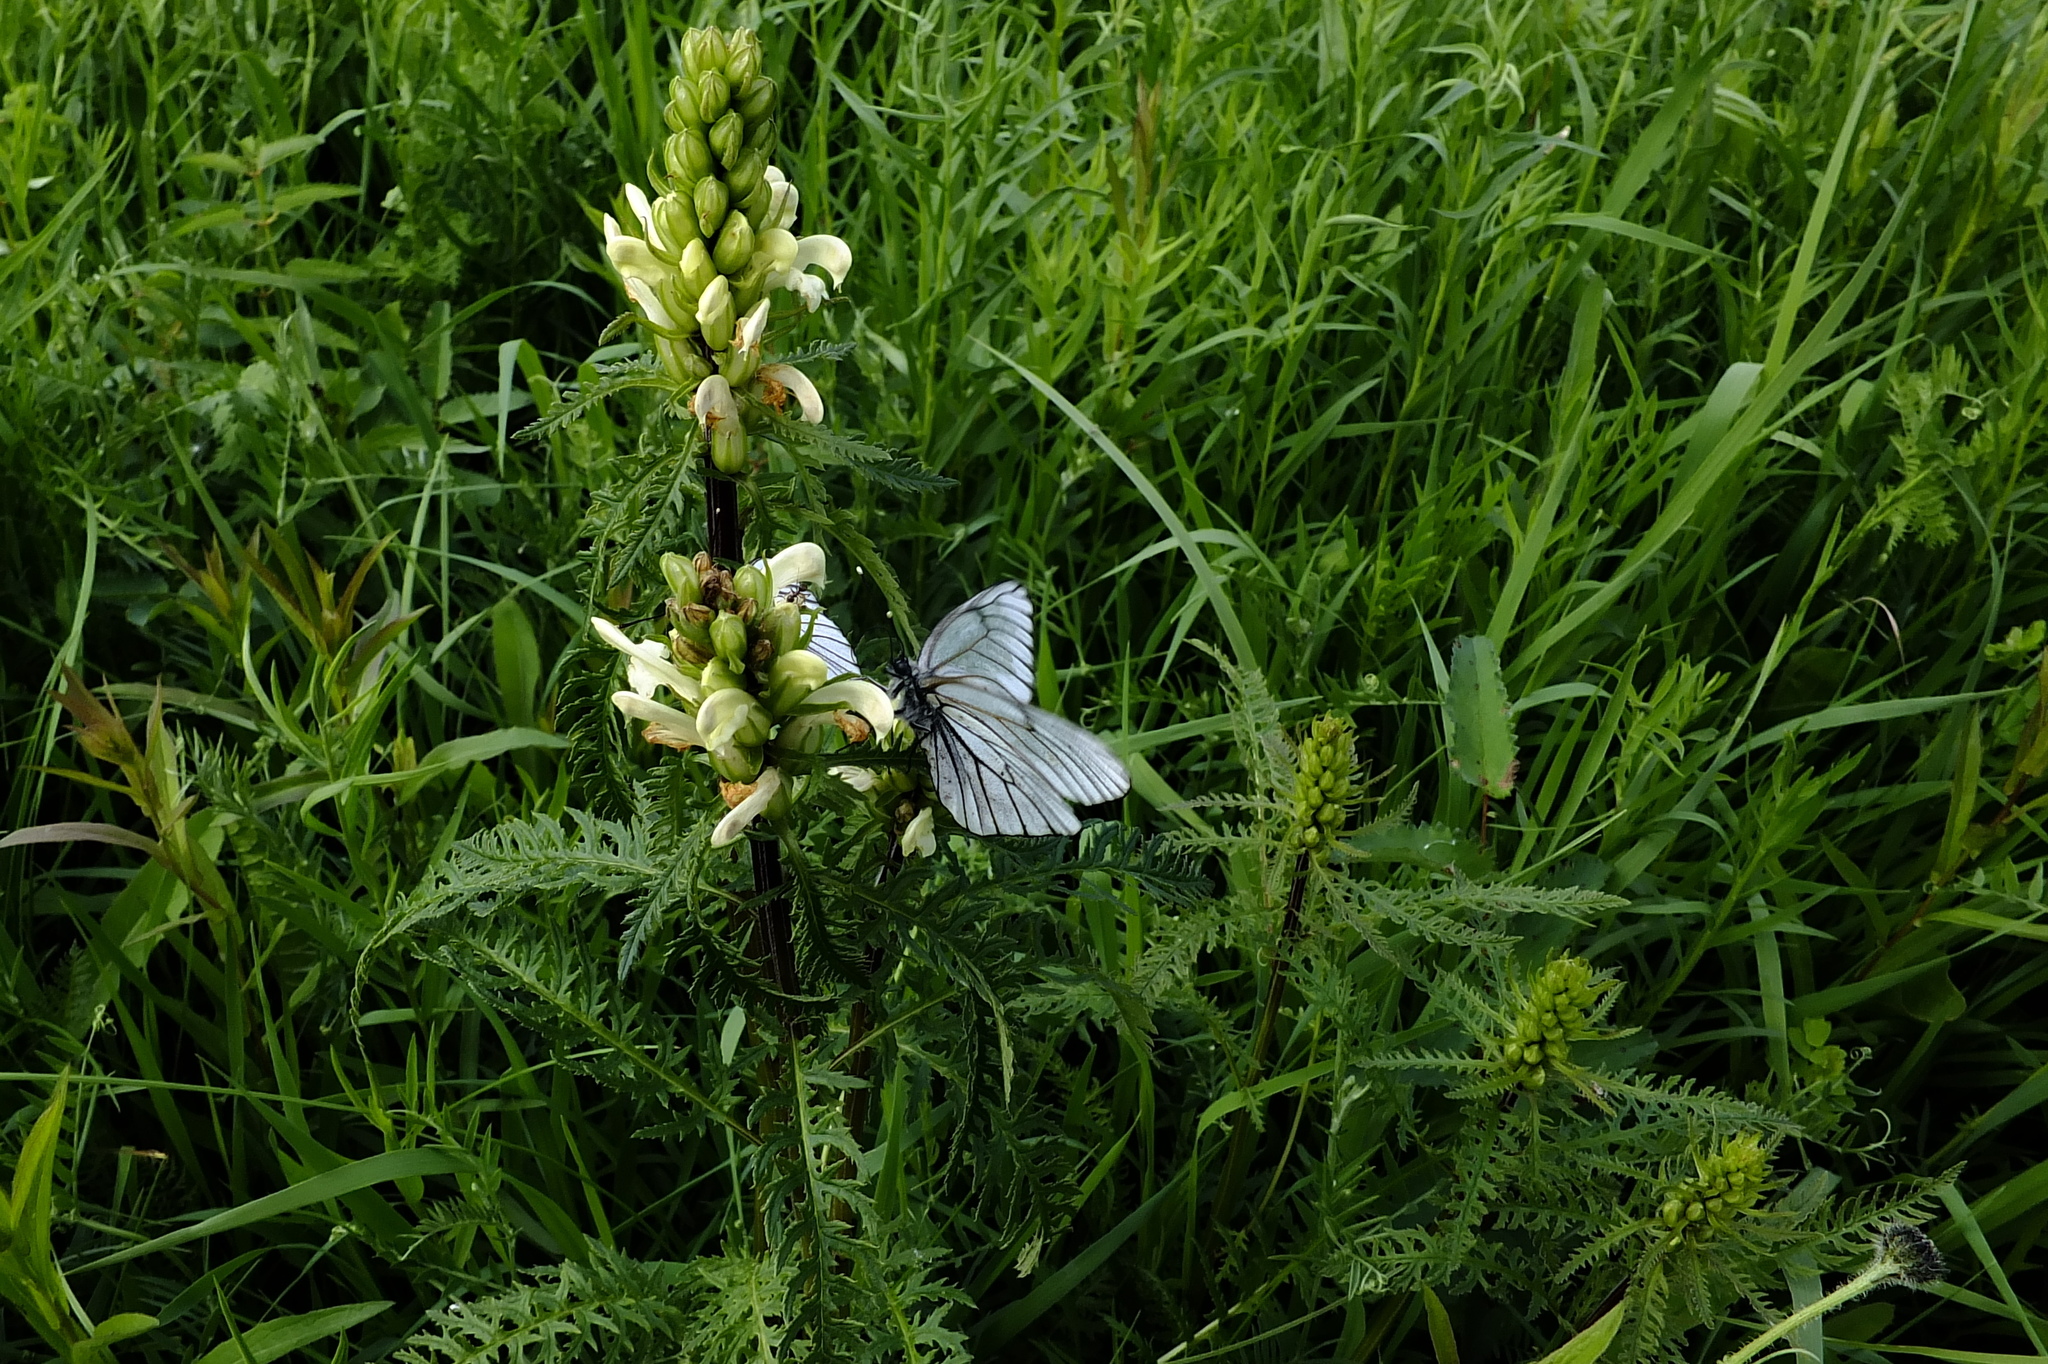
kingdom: Plantae
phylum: Tracheophyta
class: Magnoliopsida
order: Lamiales
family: Orobanchaceae
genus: Pedicularis
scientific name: Pedicularis sibirica
